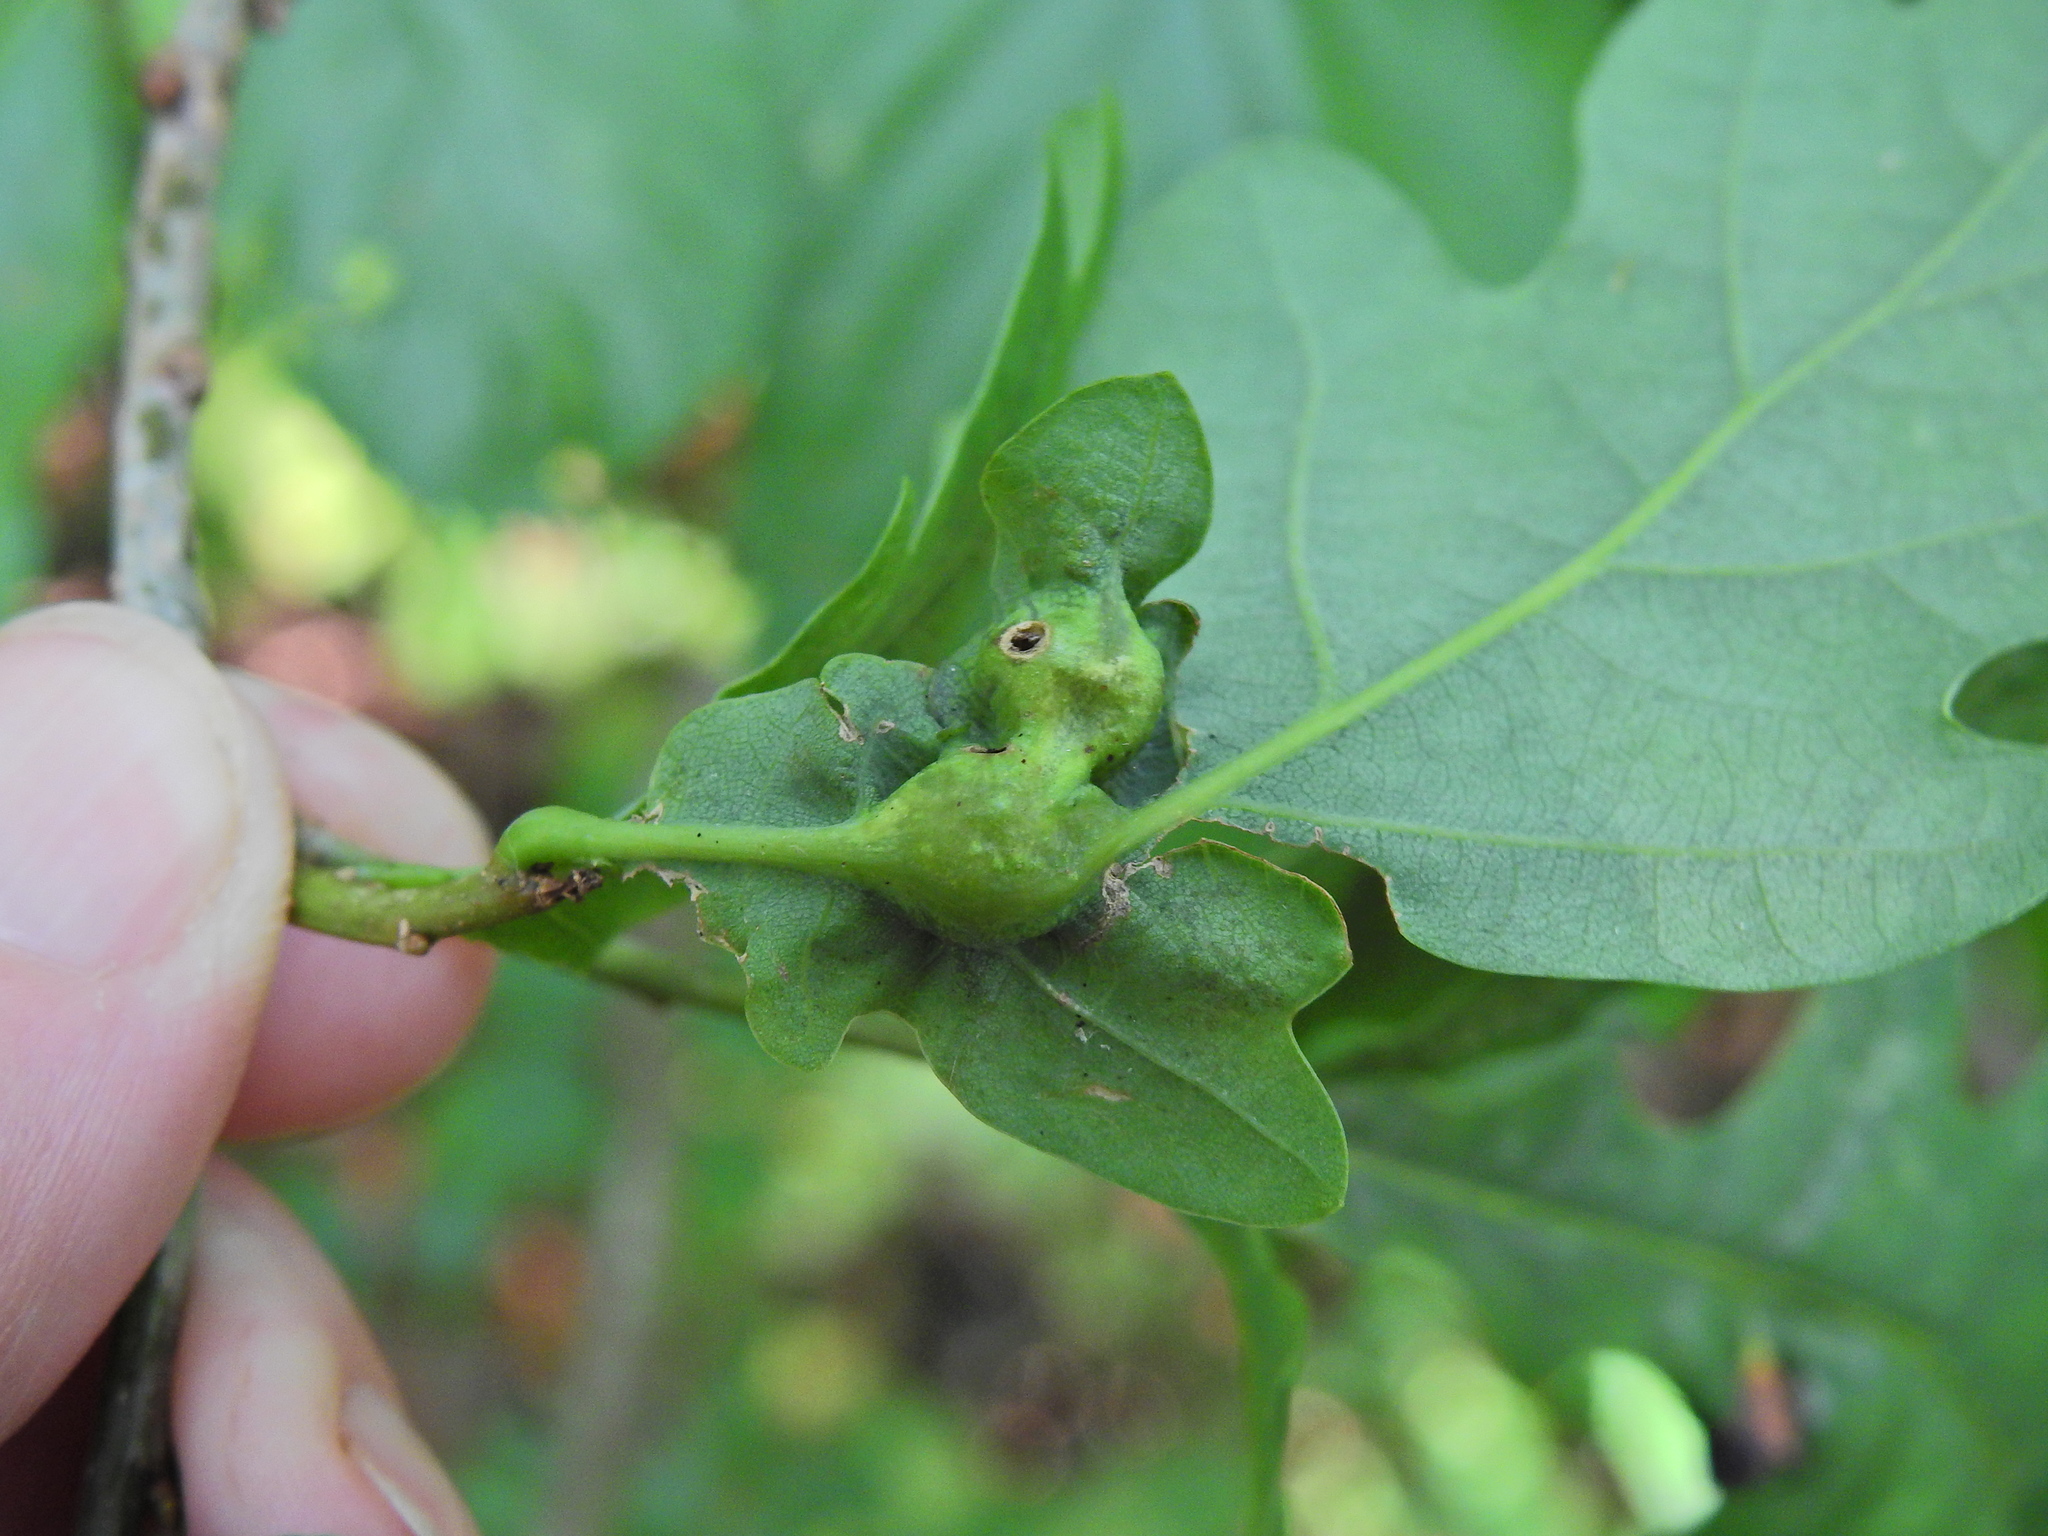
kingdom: Animalia
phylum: Arthropoda
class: Insecta
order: Hymenoptera
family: Cynipidae
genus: Andricus
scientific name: Andricus curvator
